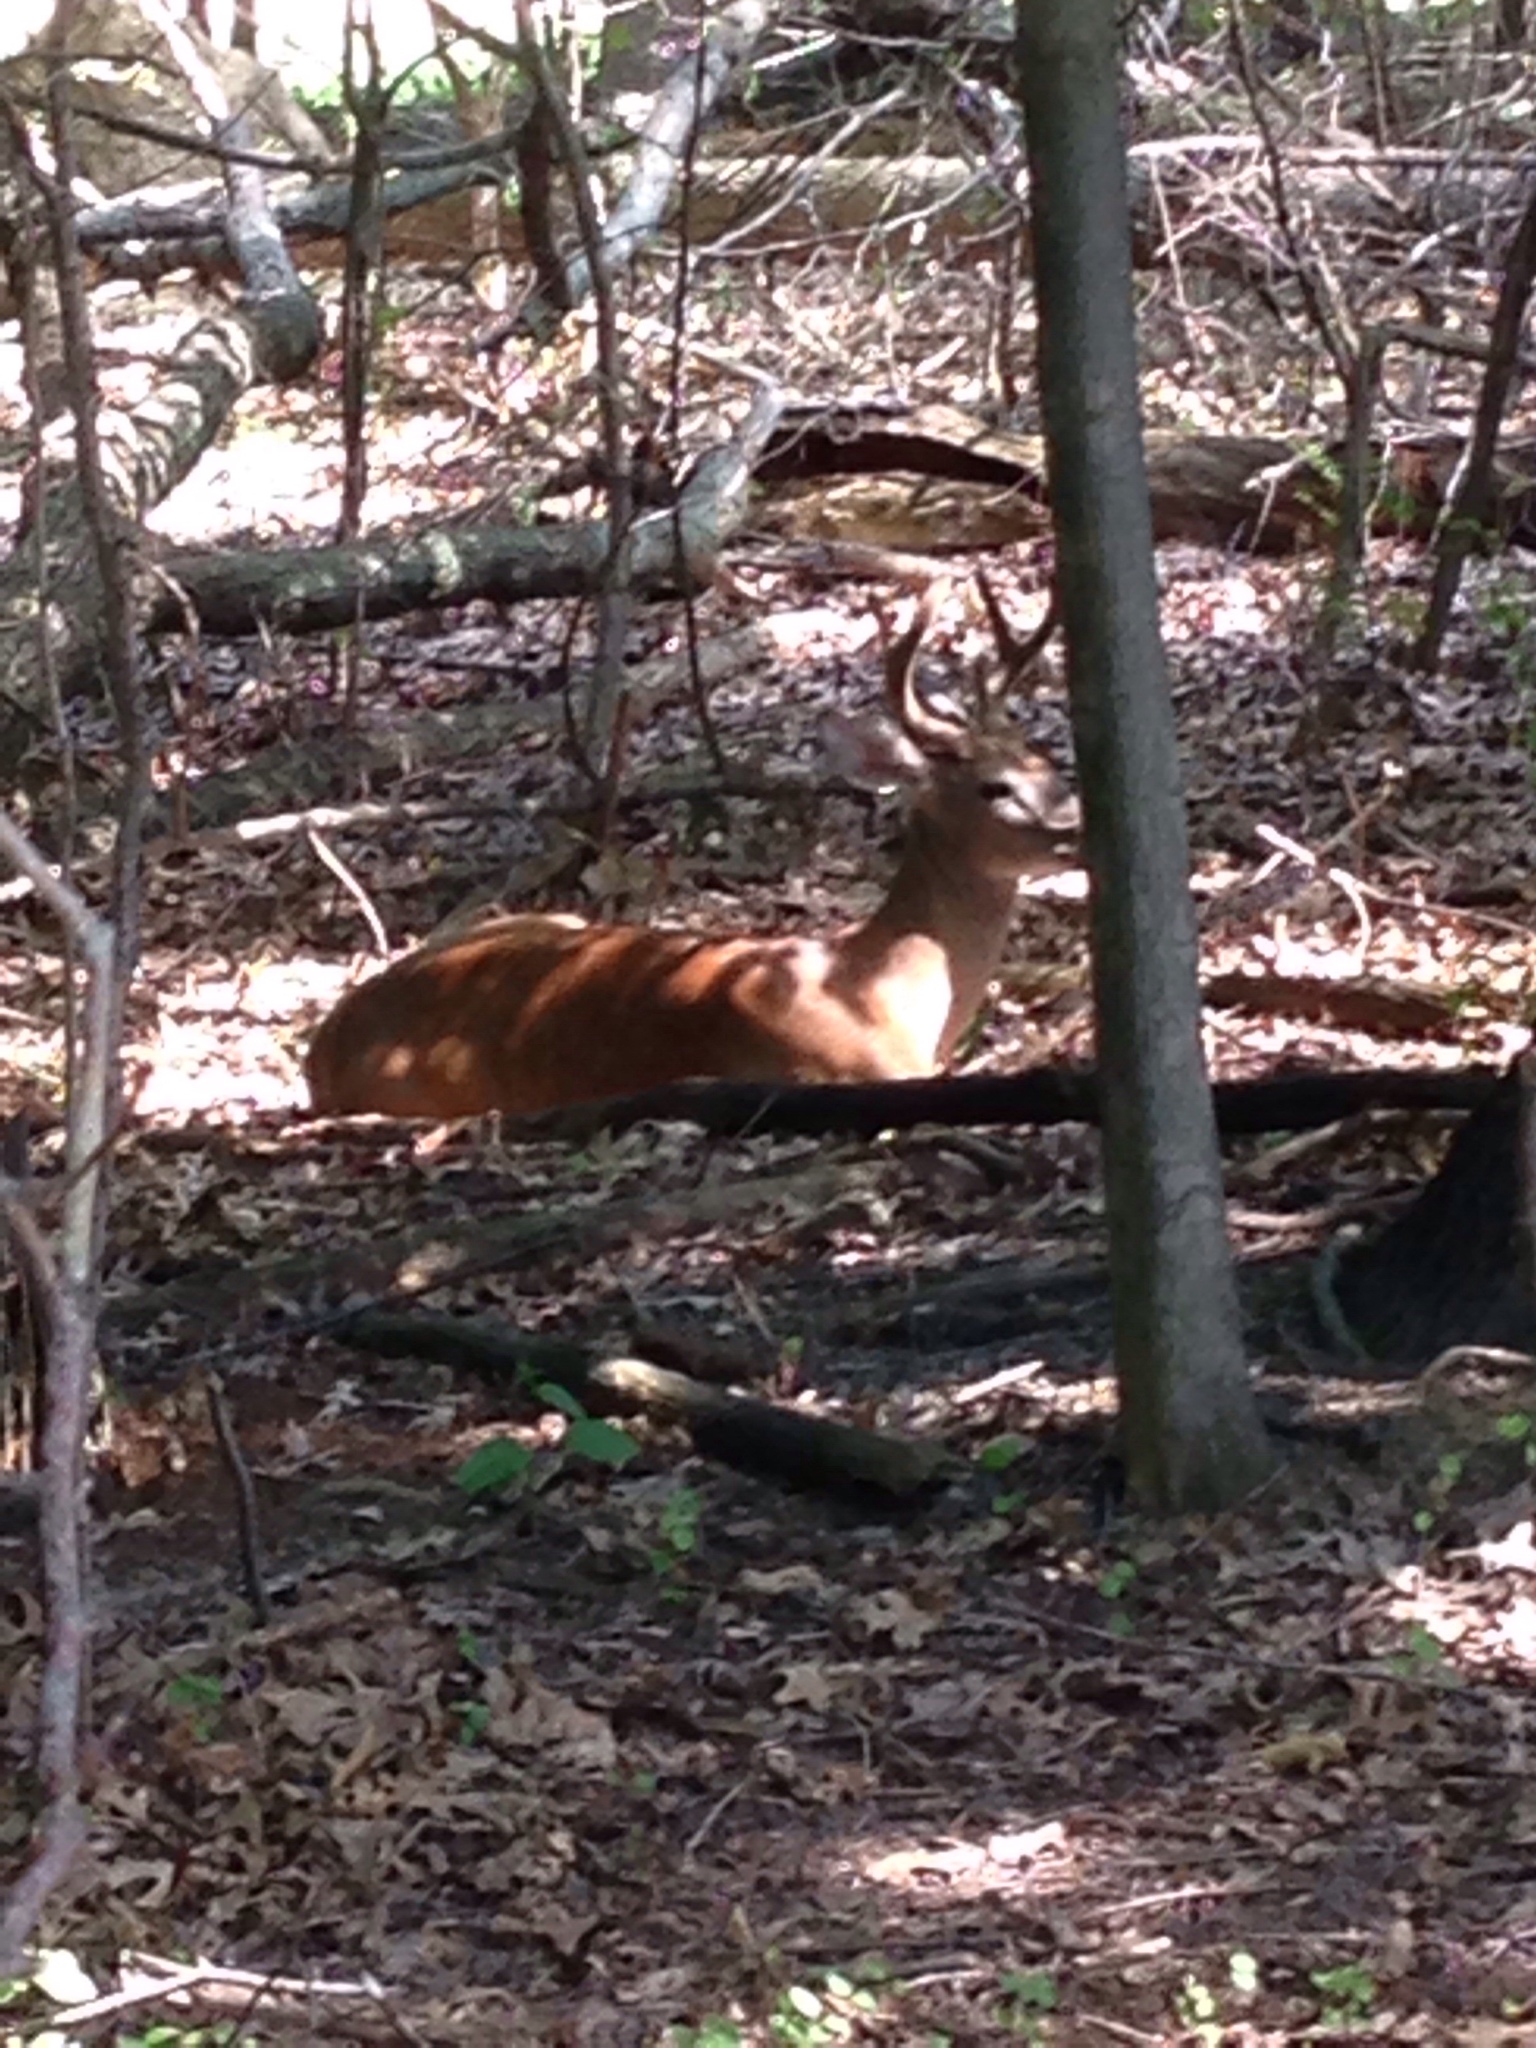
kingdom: Animalia
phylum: Chordata
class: Mammalia
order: Artiodactyla
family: Cervidae
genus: Odocoileus
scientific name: Odocoileus virginianus
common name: White-tailed deer
